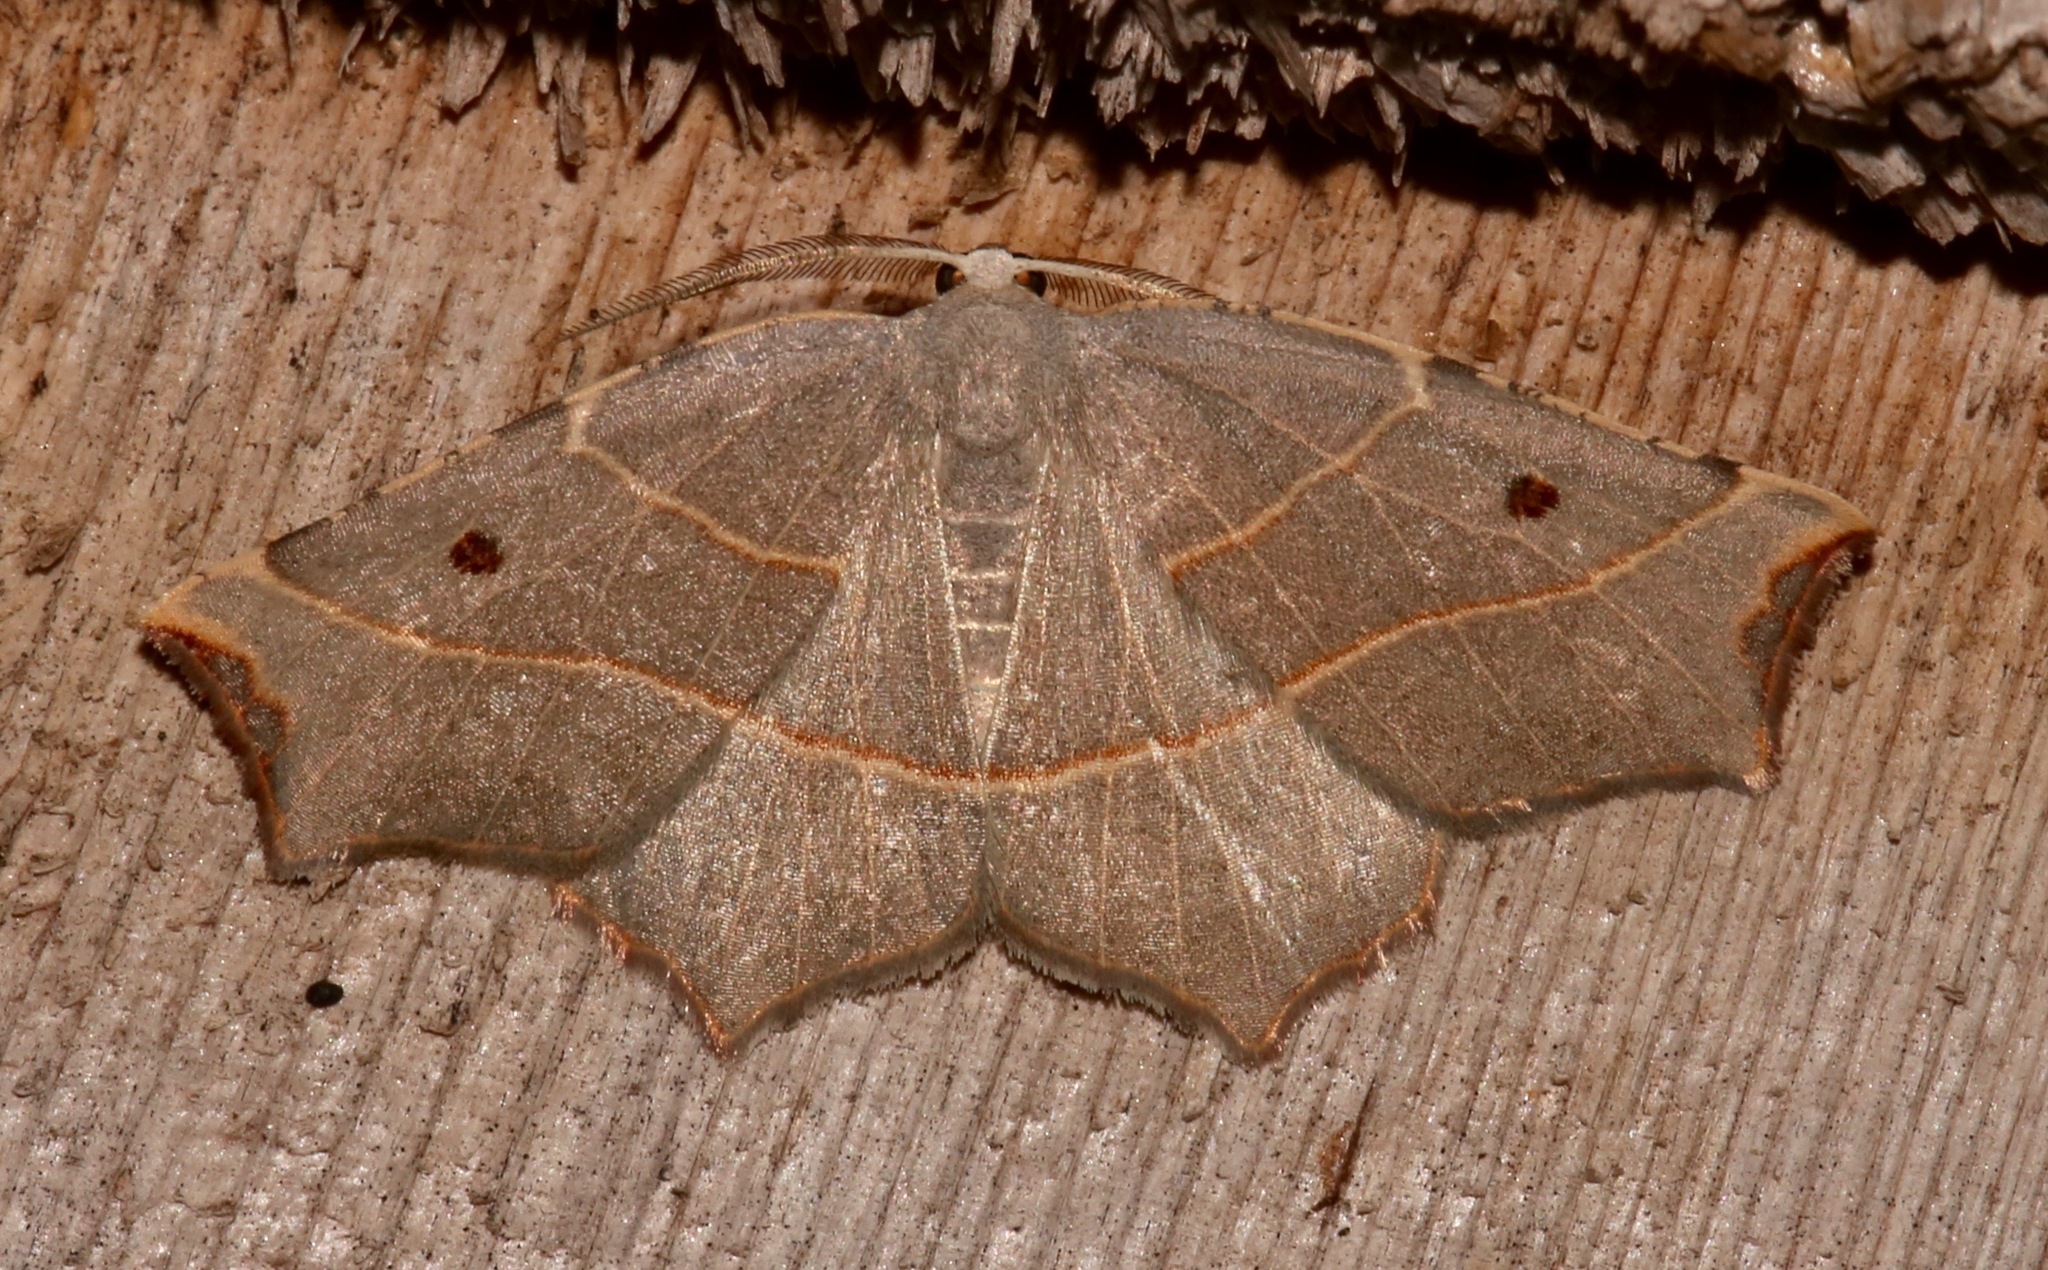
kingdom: Animalia
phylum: Arthropoda
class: Insecta
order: Lepidoptera
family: Geometridae
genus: Metanema
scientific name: Metanema inatomaria
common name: Pale metanema
